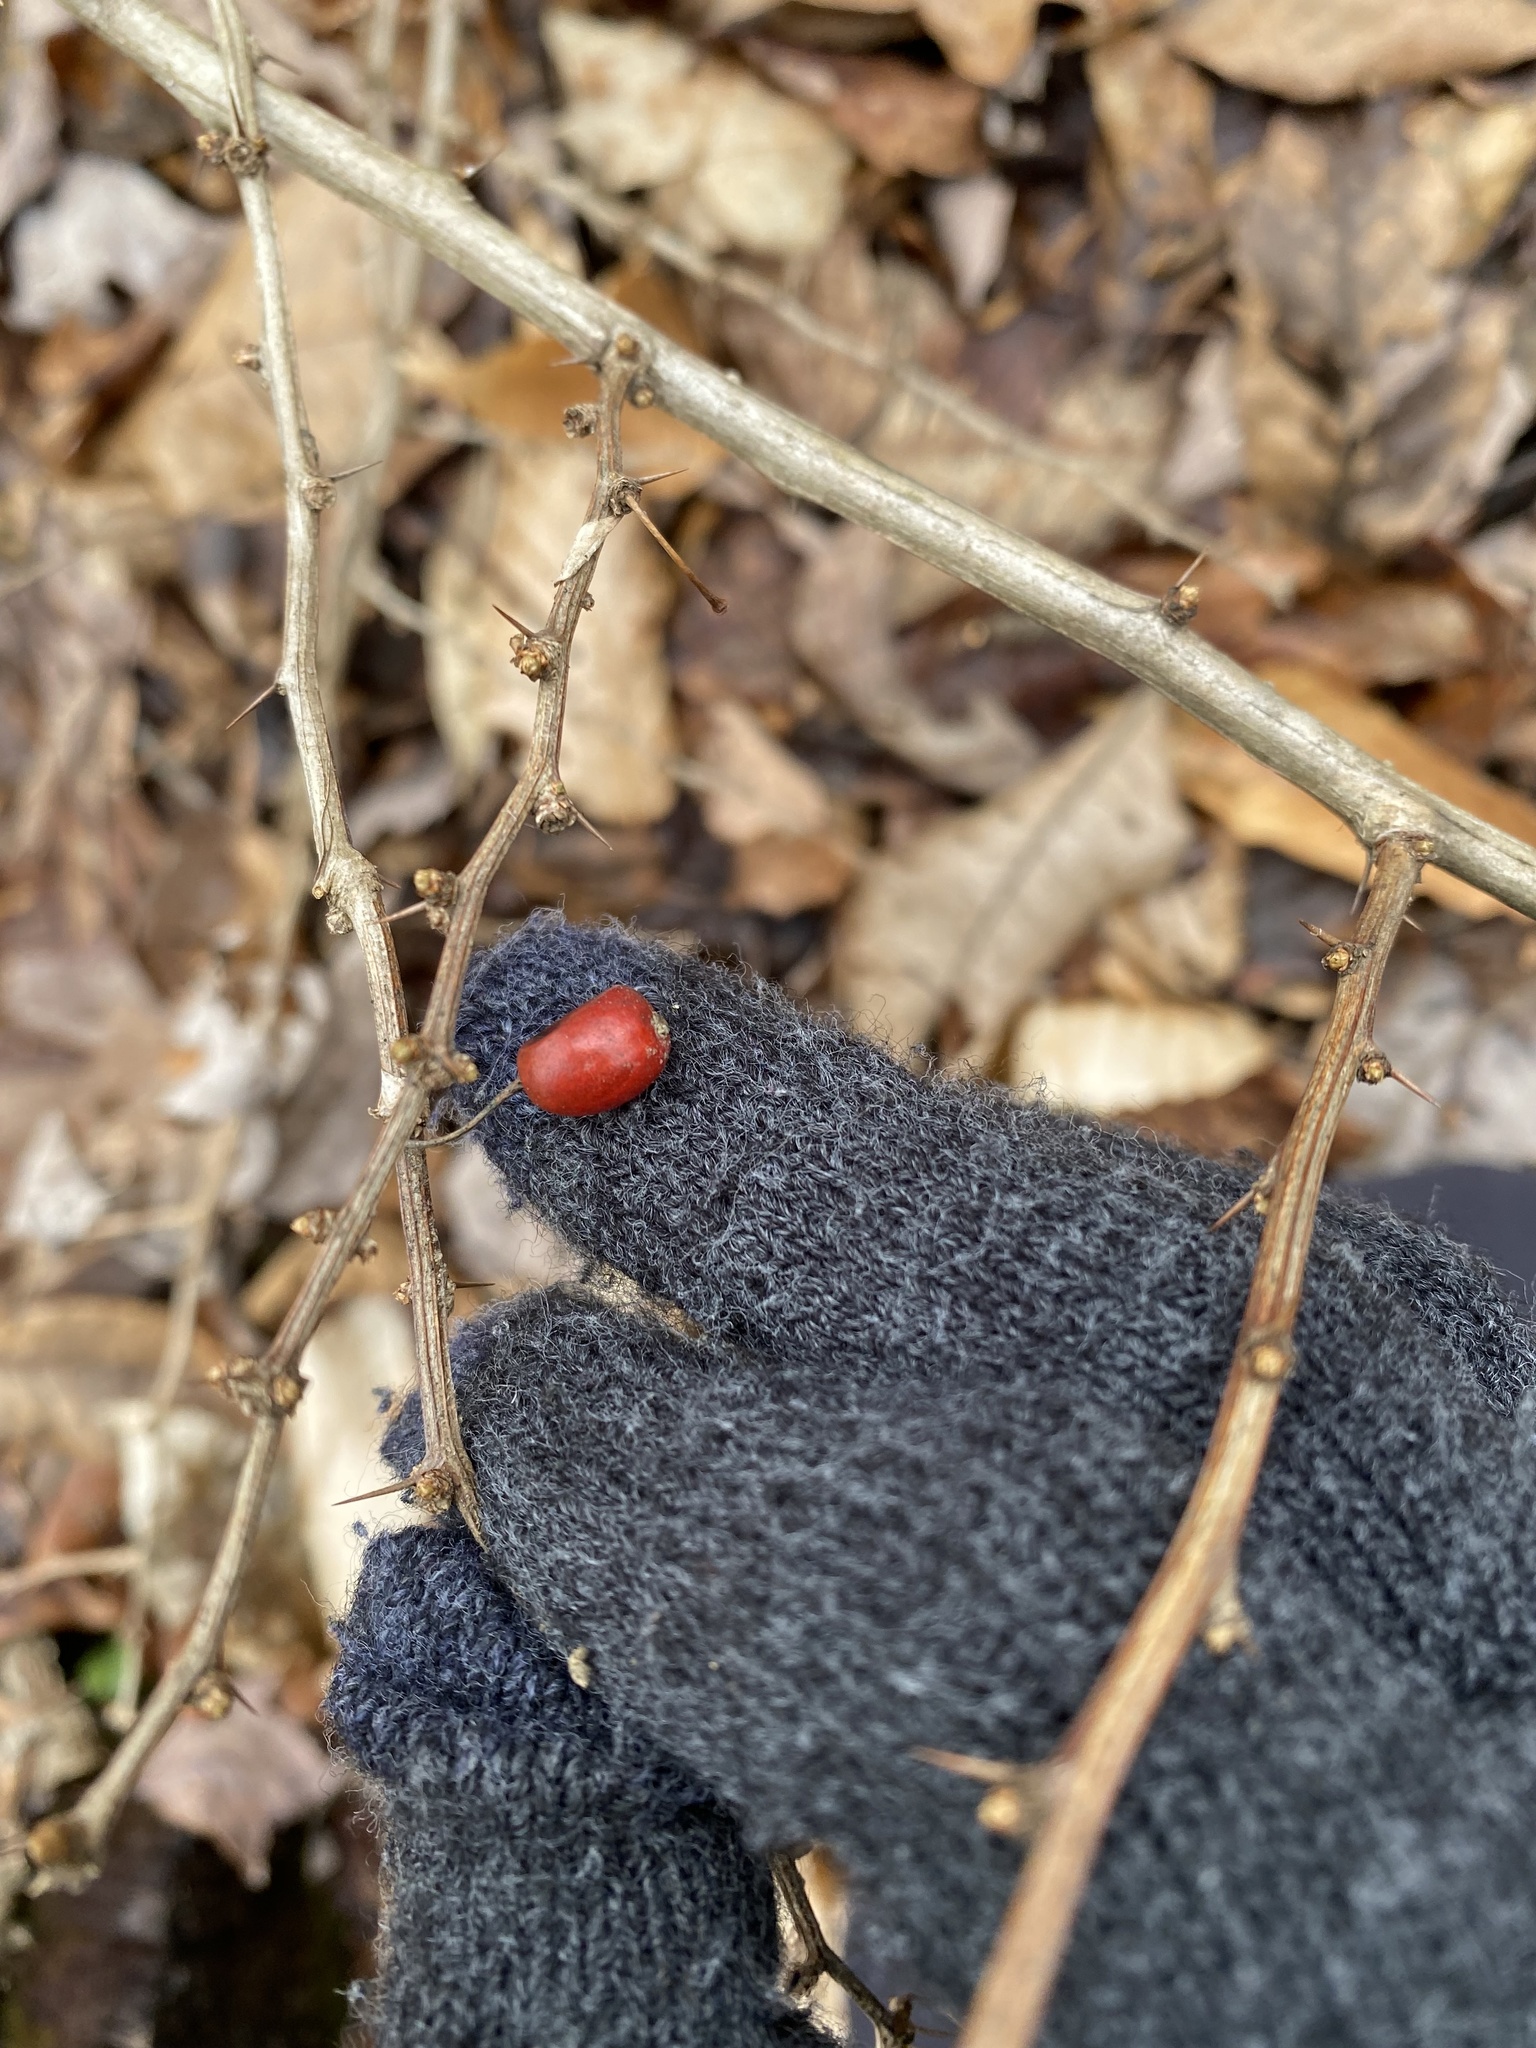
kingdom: Plantae
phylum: Tracheophyta
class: Magnoliopsida
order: Ranunculales
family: Berberidaceae
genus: Berberis
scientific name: Berberis thunbergii
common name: Japanese barberry
